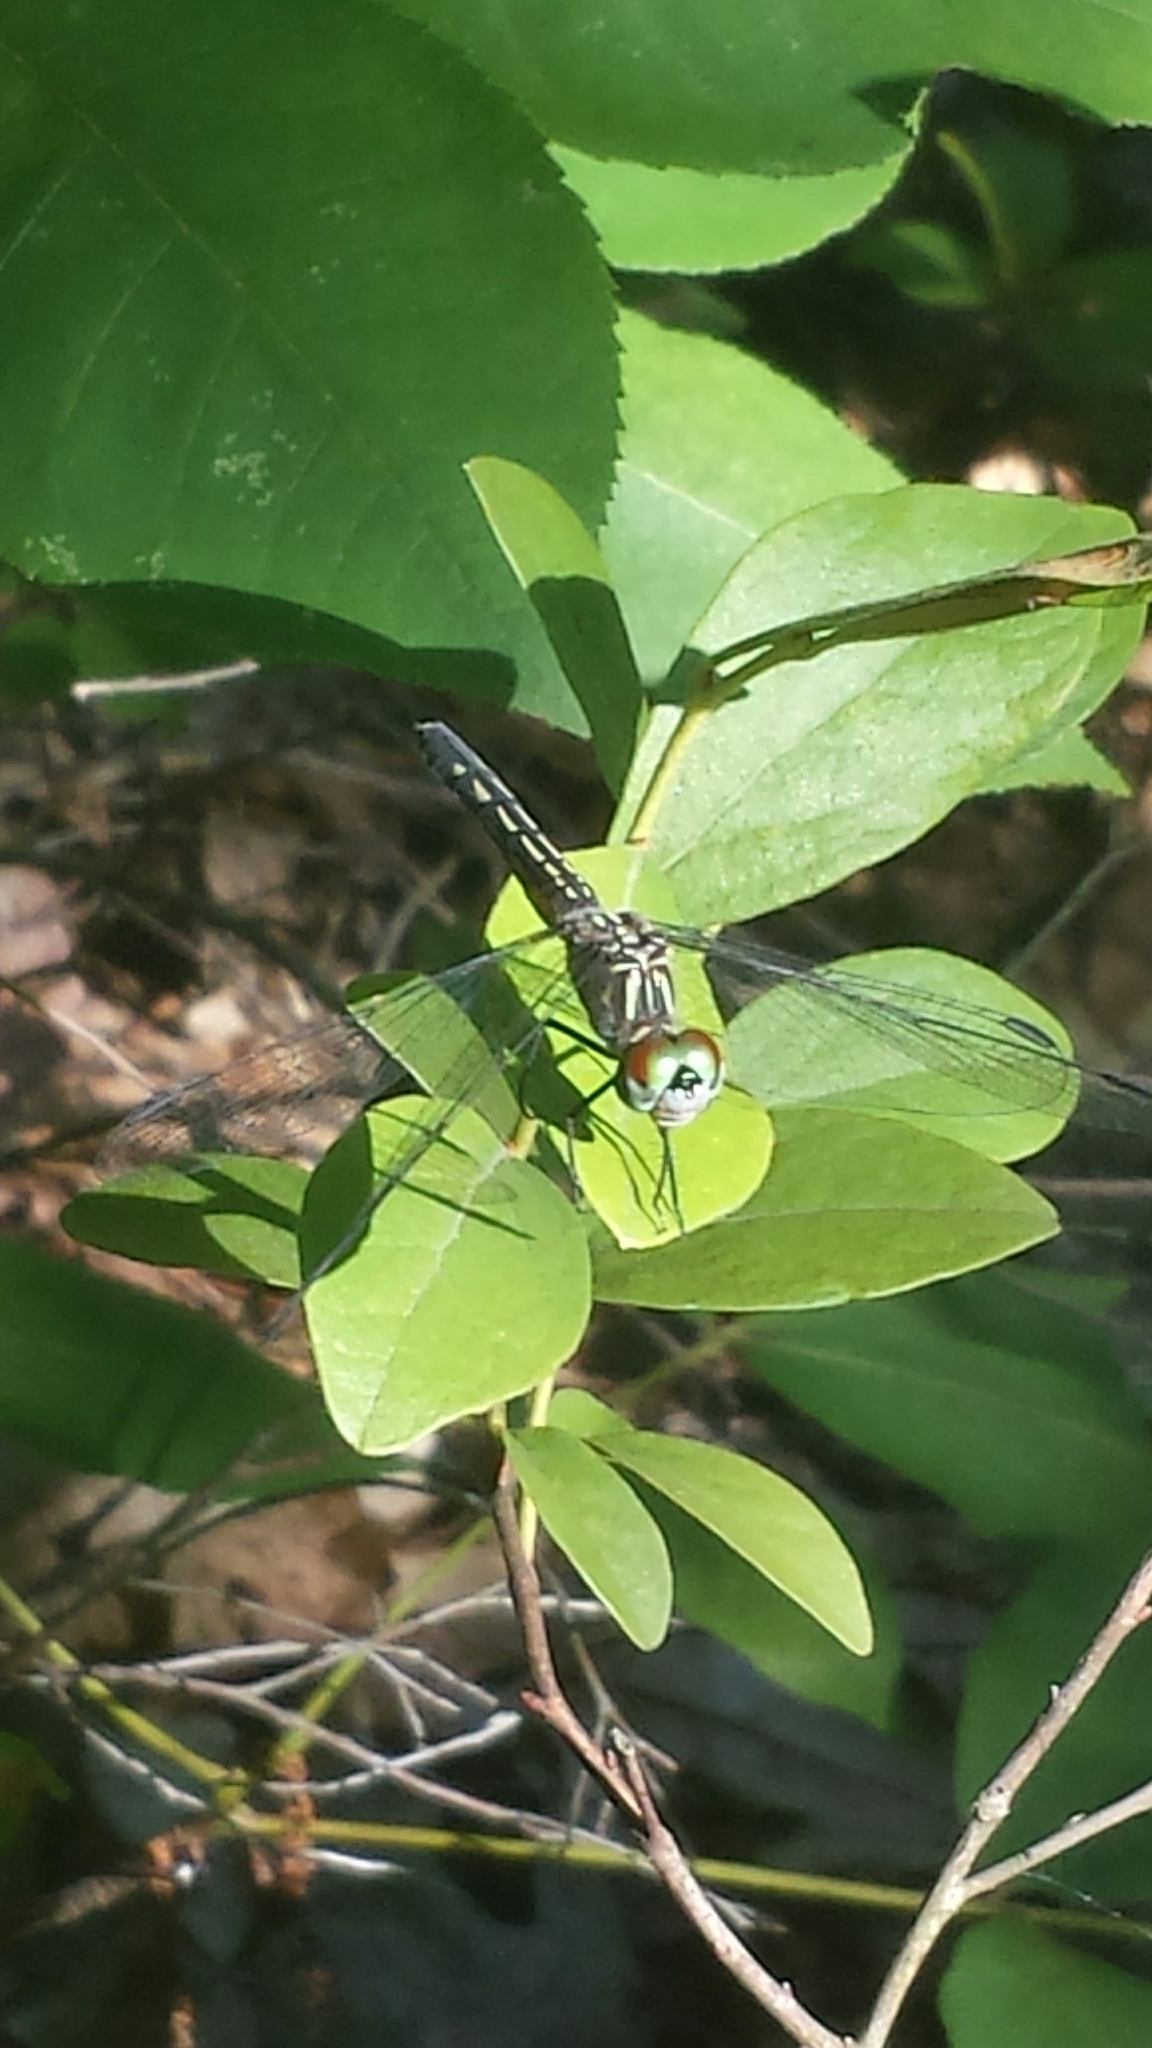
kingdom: Animalia
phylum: Arthropoda
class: Insecta
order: Odonata
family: Libellulidae
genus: Pachydiplax
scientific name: Pachydiplax longipennis
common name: Blue dasher
